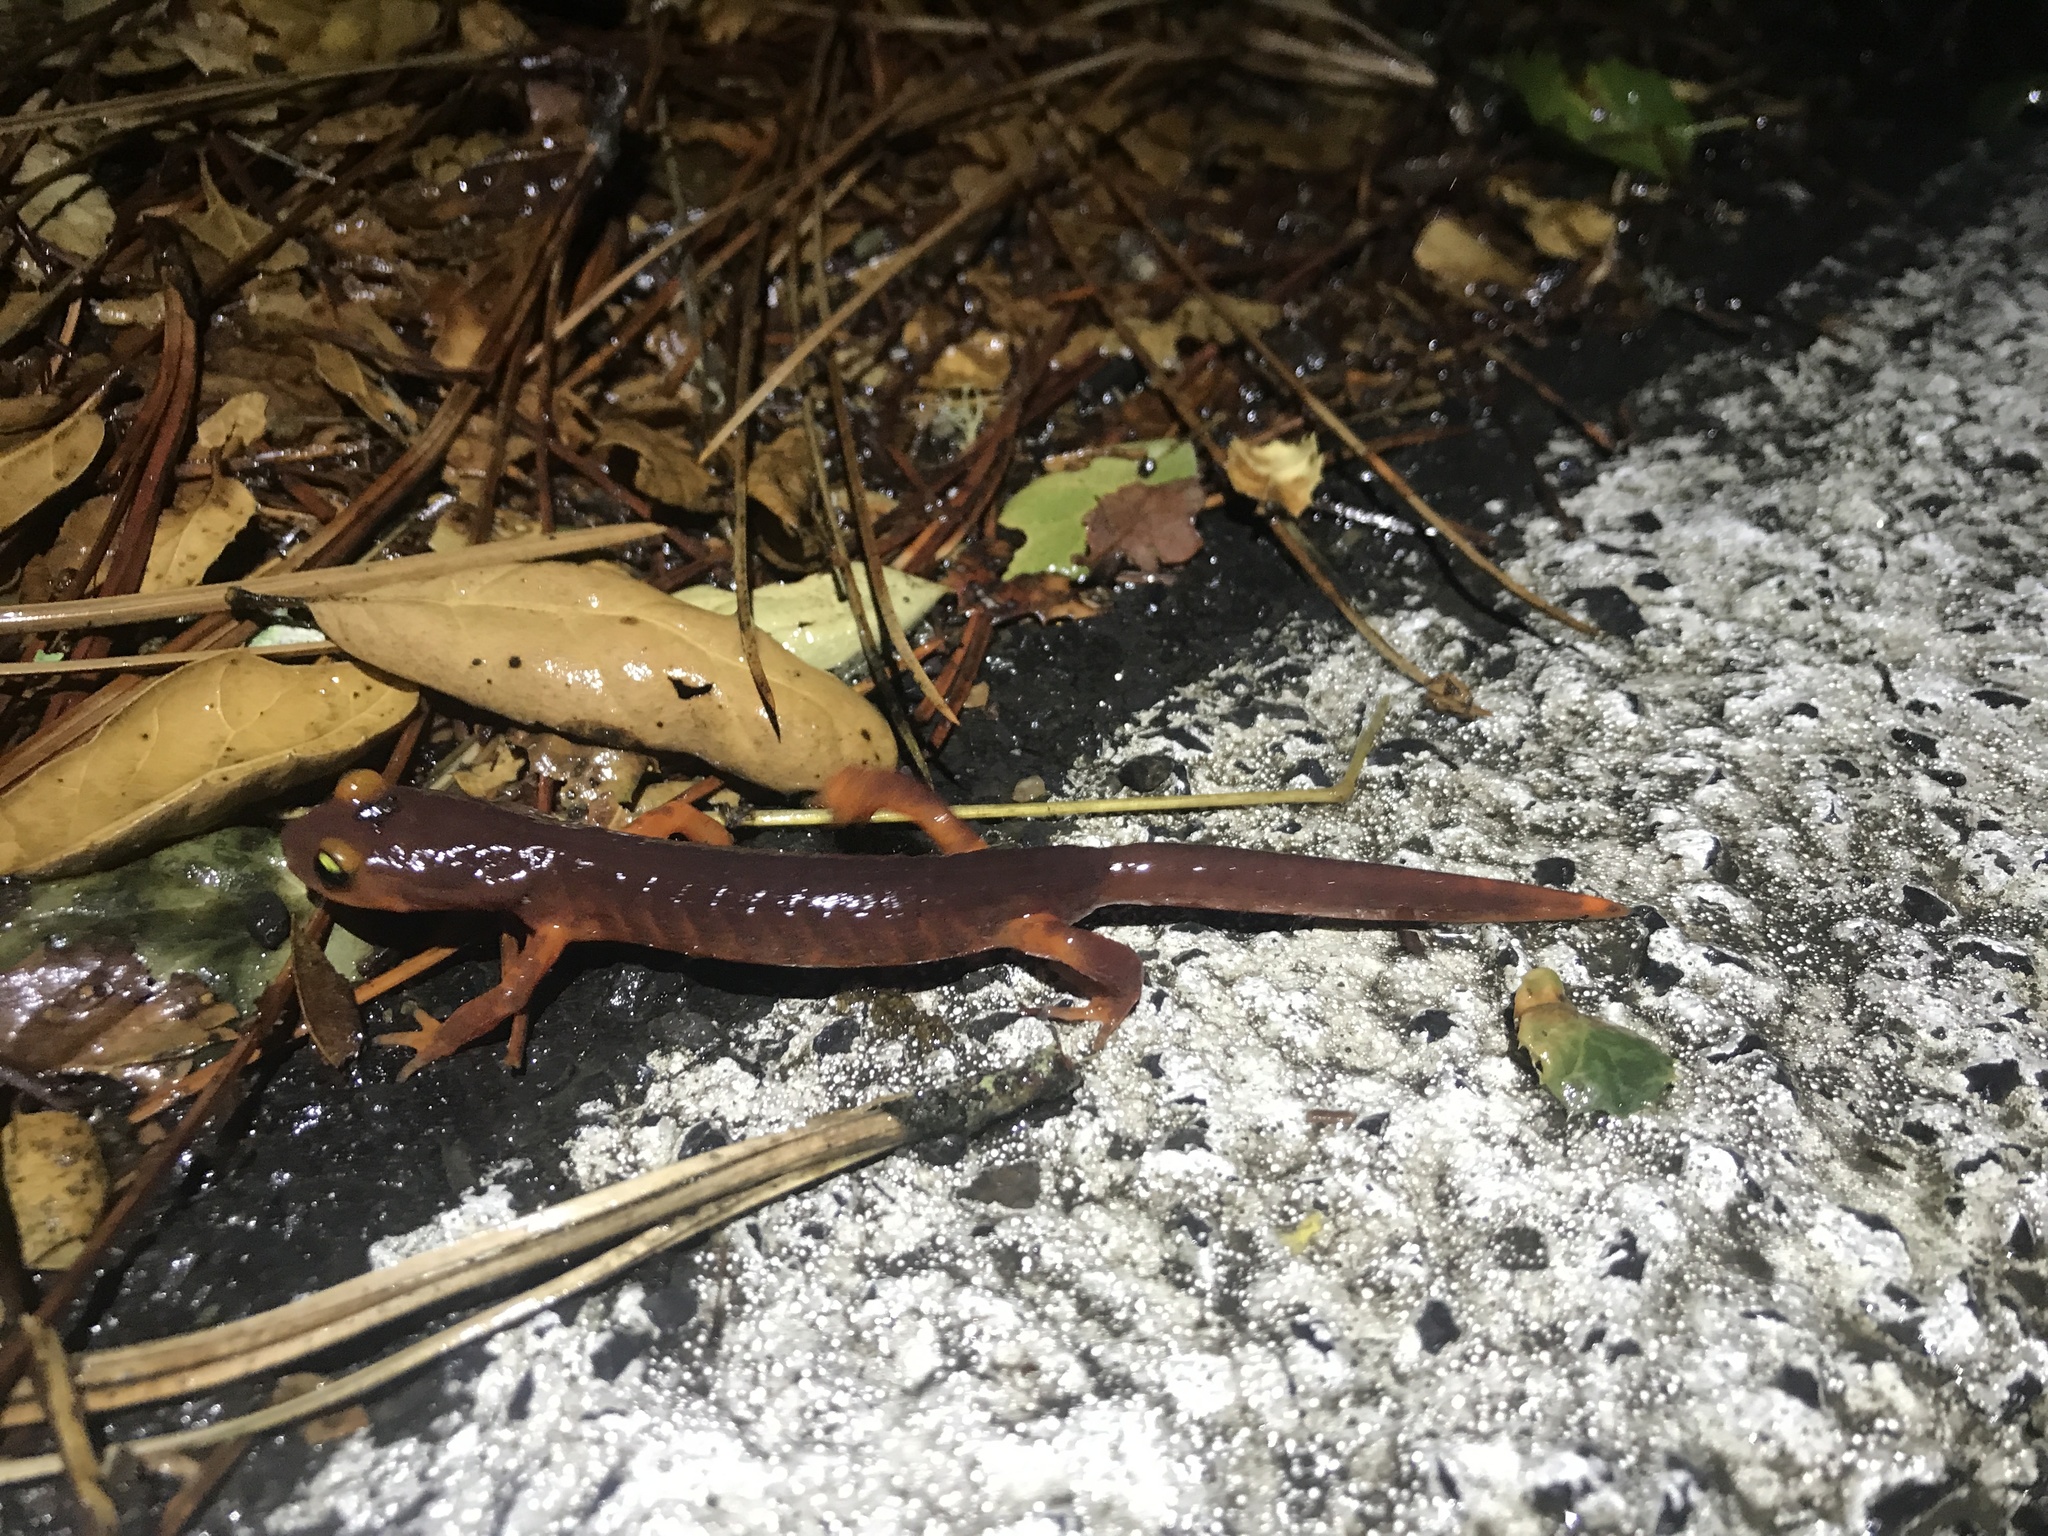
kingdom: Animalia
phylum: Chordata
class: Amphibia
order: Caudata
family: Plethodontidae
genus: Ensatina
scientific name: Ensatina eschscholtzii
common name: Ensatina
